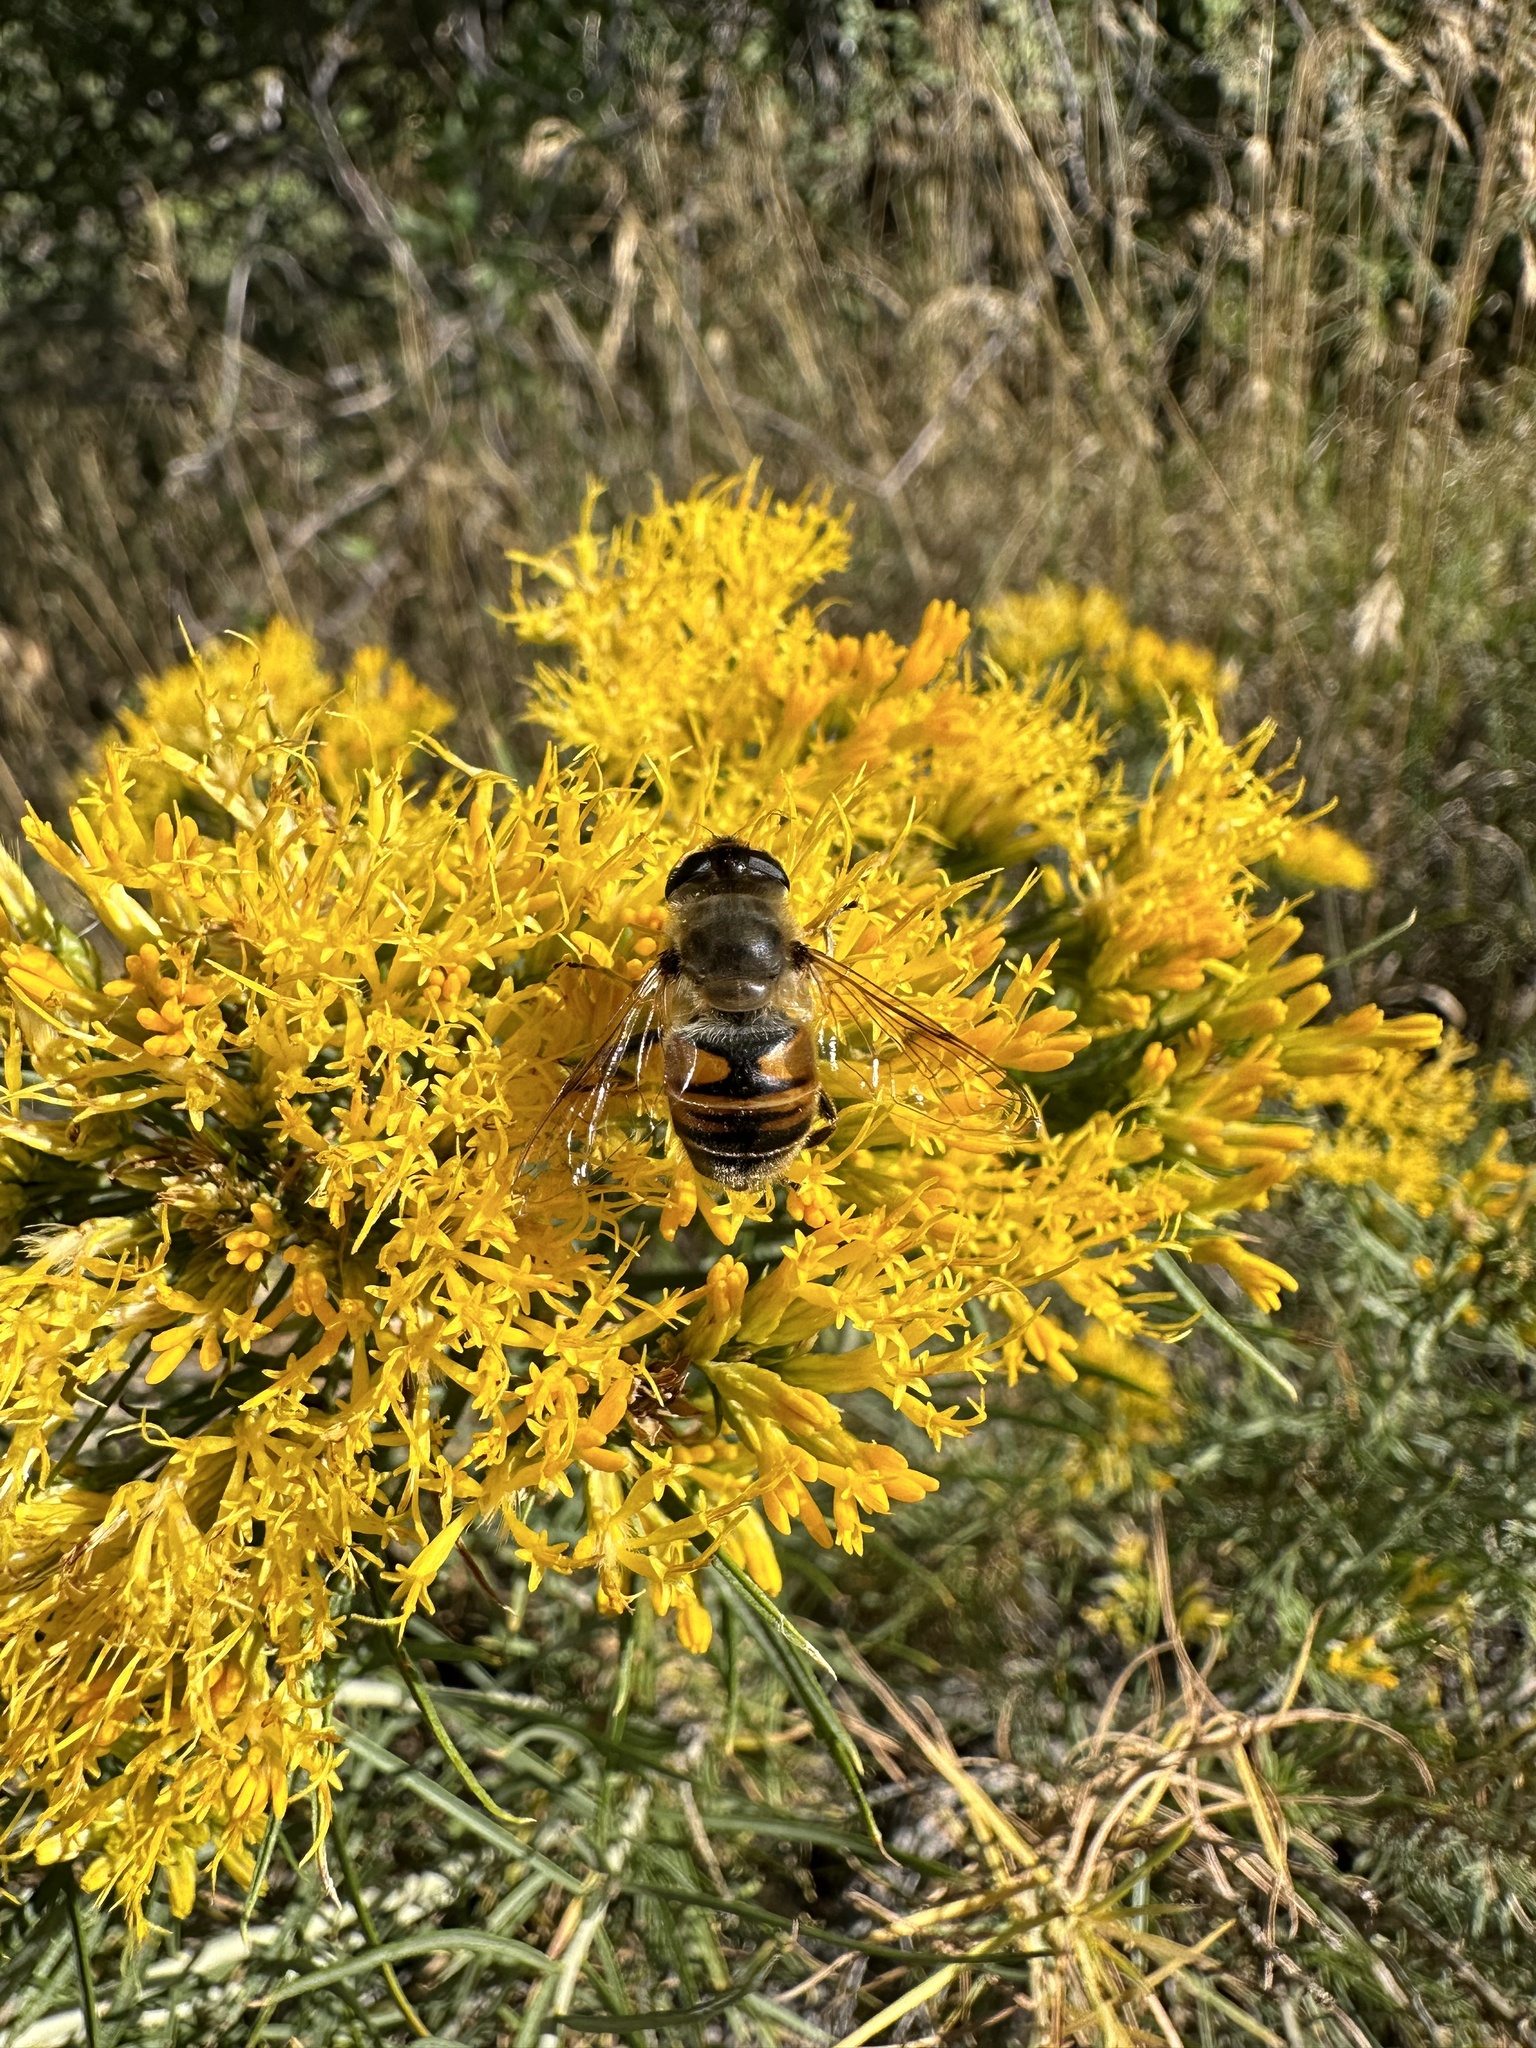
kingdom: Animalia
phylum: Arthropoda
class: Insecta
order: Diptera
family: Syrphidae
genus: Eristalis
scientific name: Eristalis tenax
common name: Drone fly
